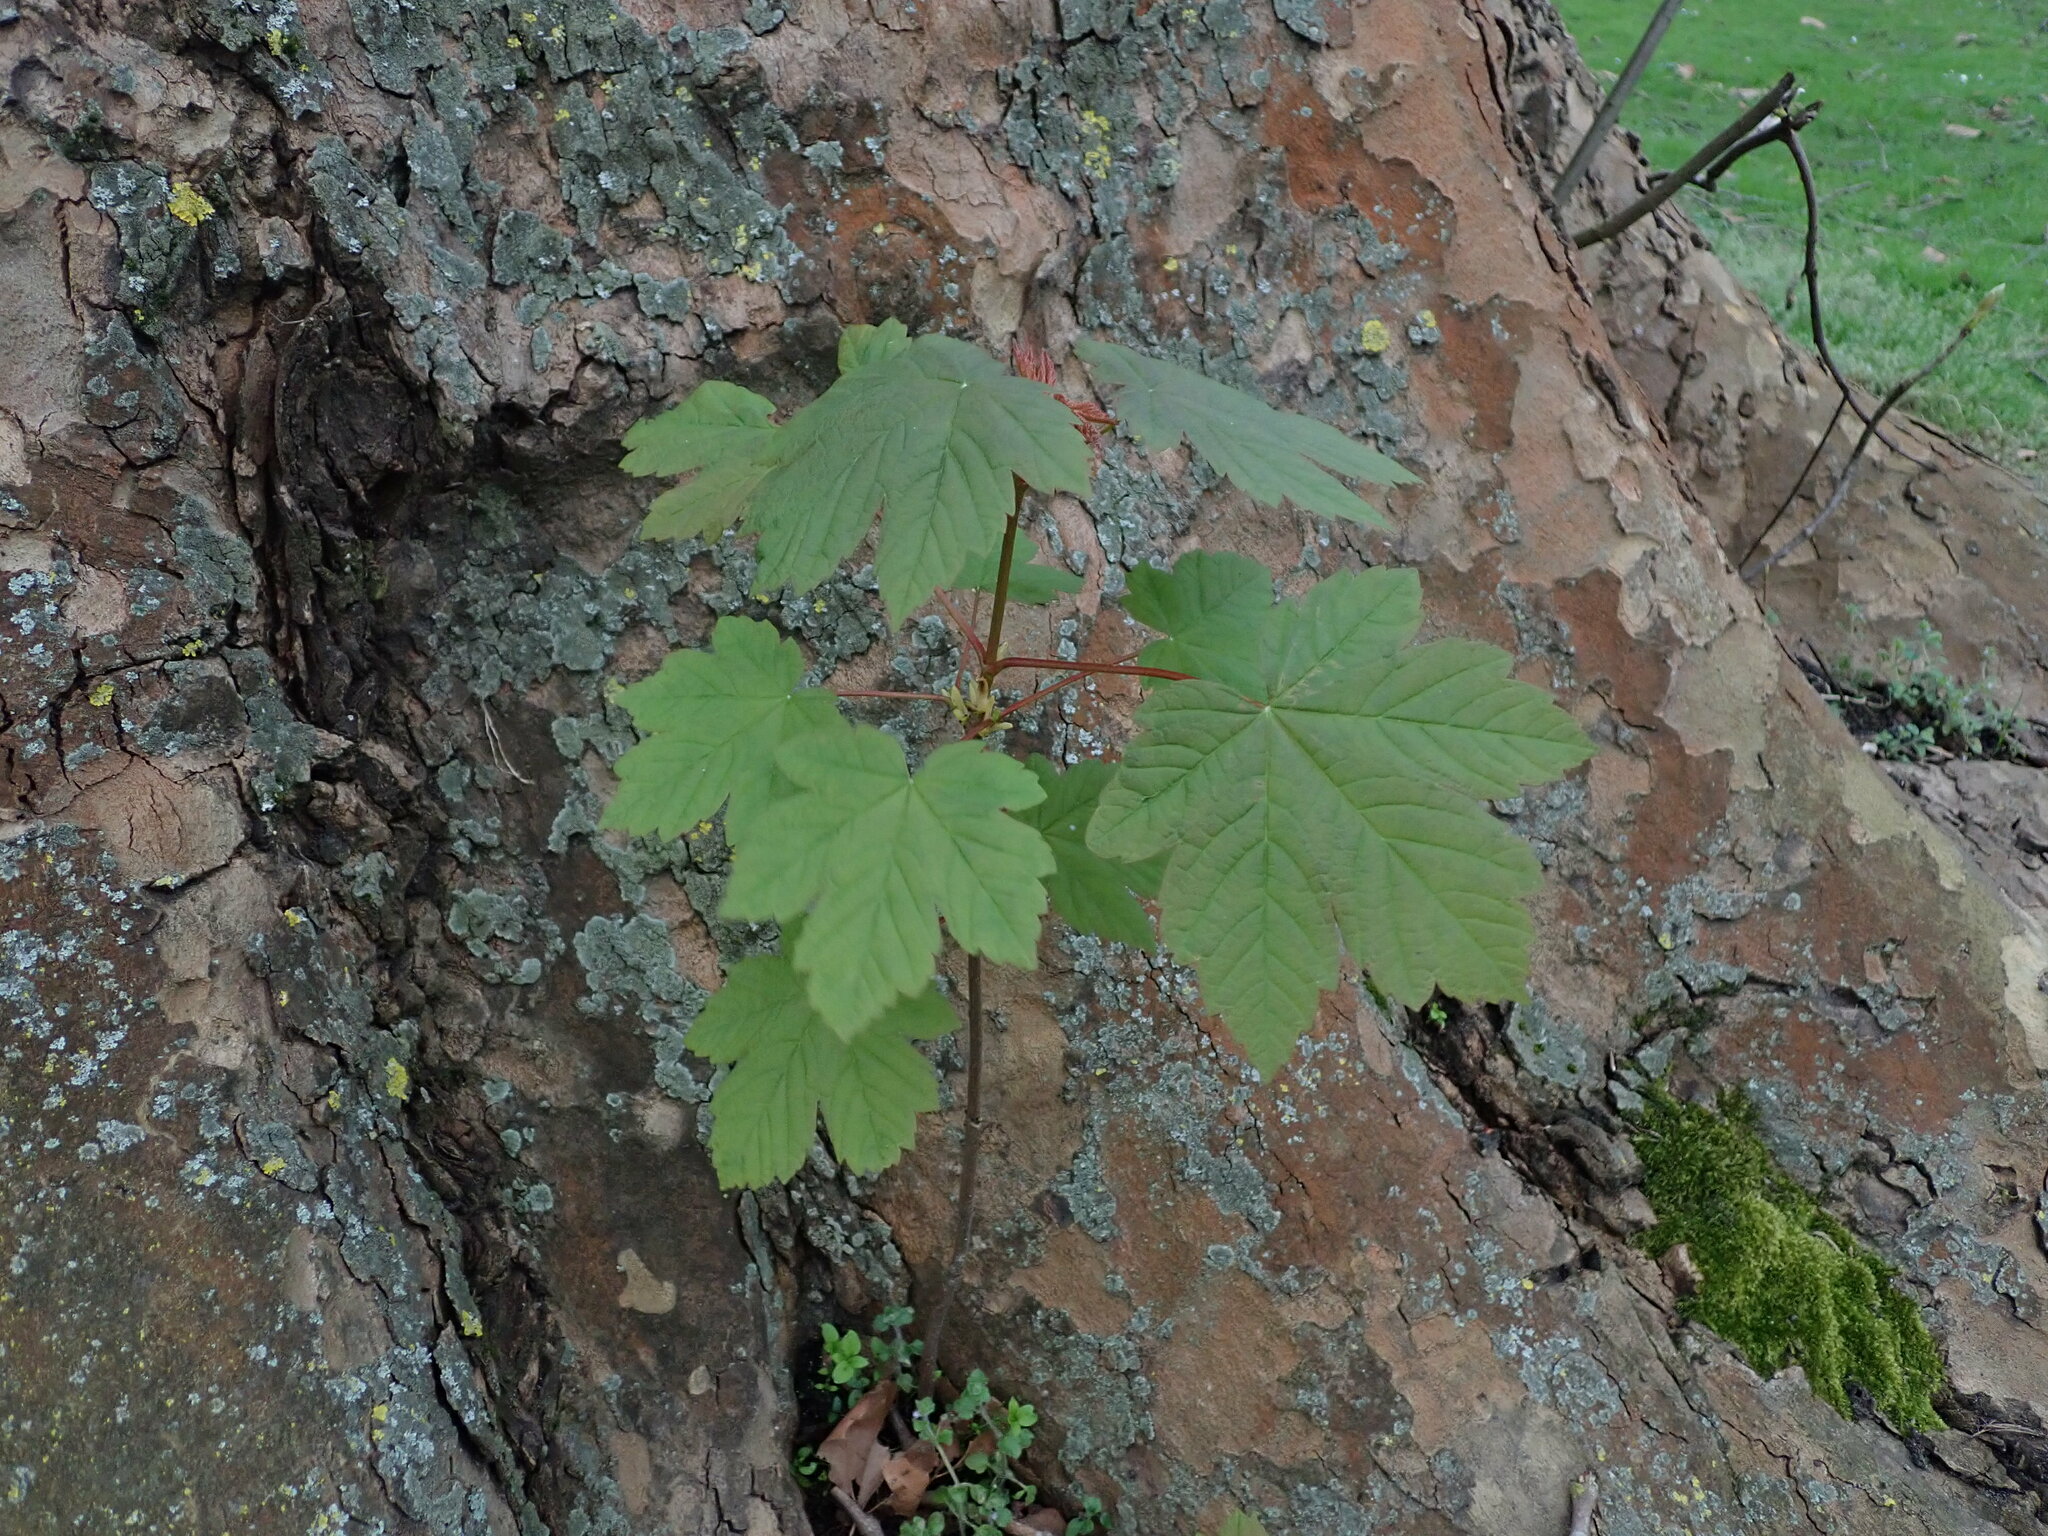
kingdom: Plantae
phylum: Tracheophyta
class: Magnoliopsida
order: Sapindales
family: Sapindaceae
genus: Acer
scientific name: Acer pseudoplatanus
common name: Sycamore
